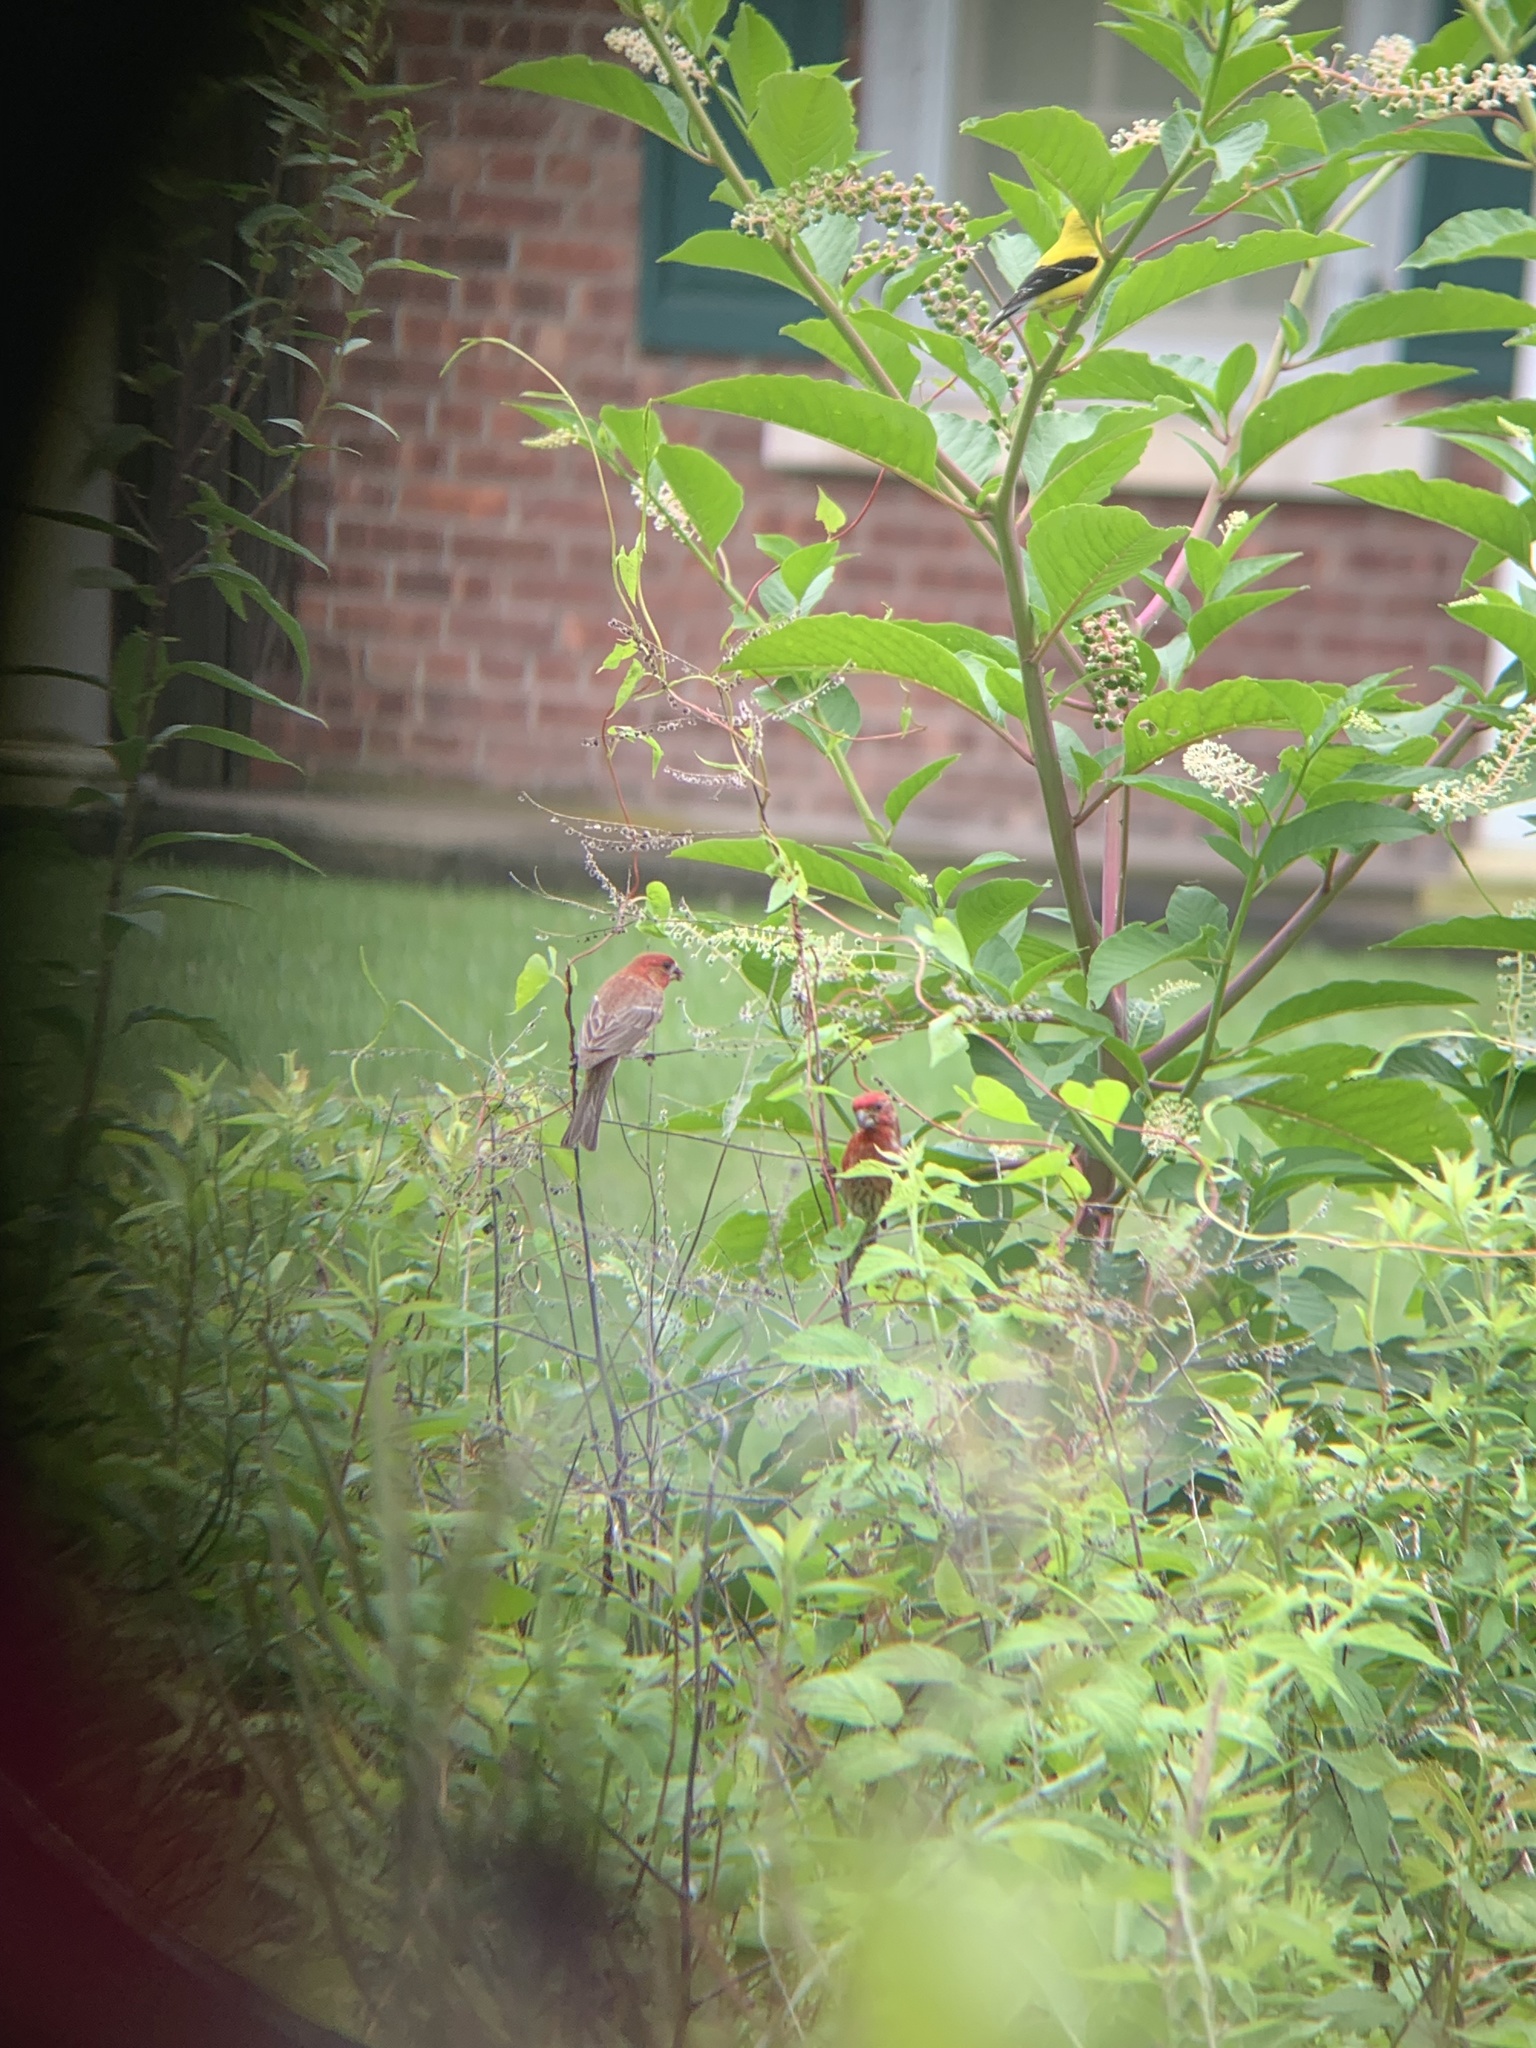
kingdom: Animalia
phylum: Chordata
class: Aves
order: Passeriformes
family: Fringillidae
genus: Haemorhous
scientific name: Haemorhous mexicanus
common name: House finch
